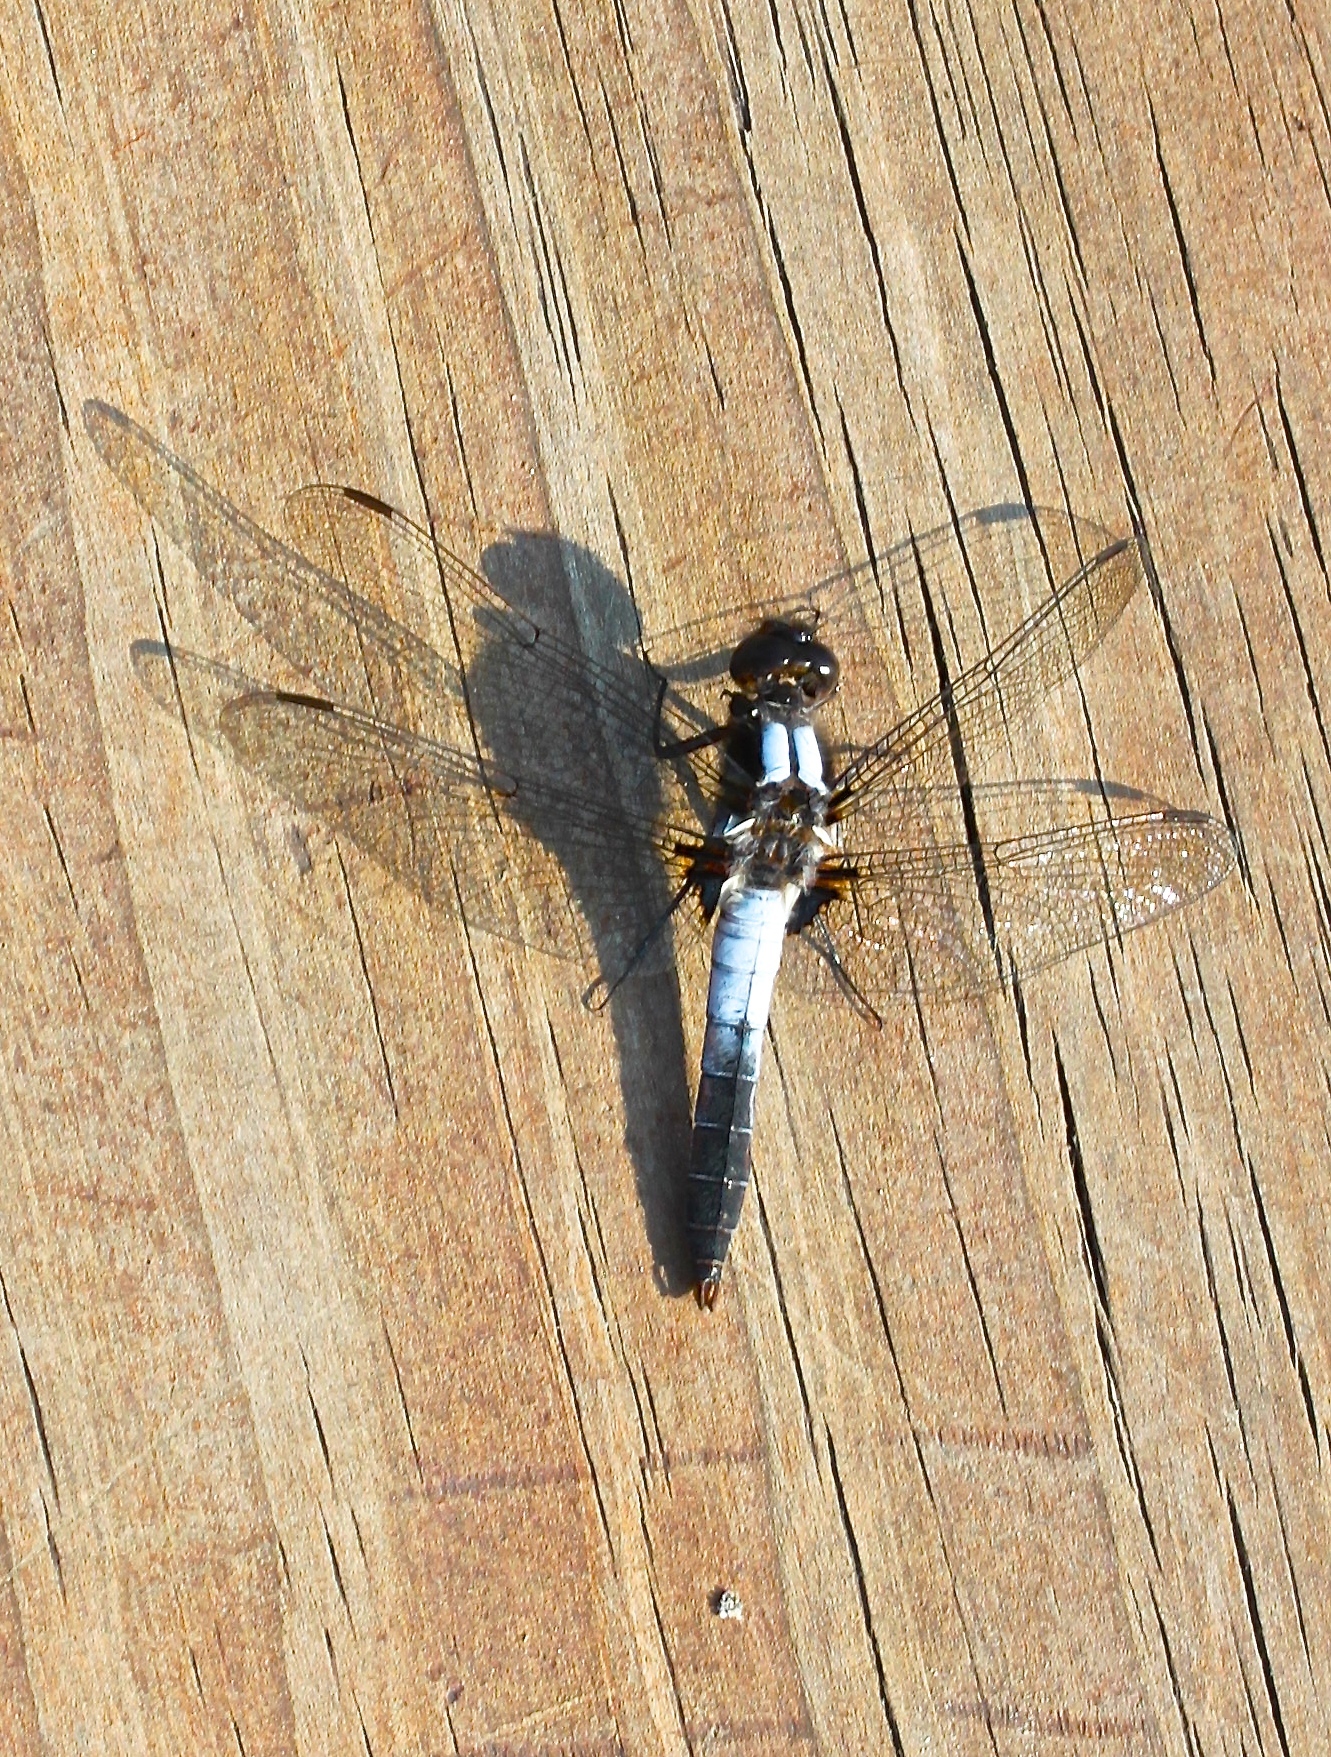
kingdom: Animalia
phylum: Arthropoda
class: Insecta
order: Odonata
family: Libellulidae
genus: Ladona
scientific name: Ladona julia
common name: Chalk-fronted corporal
